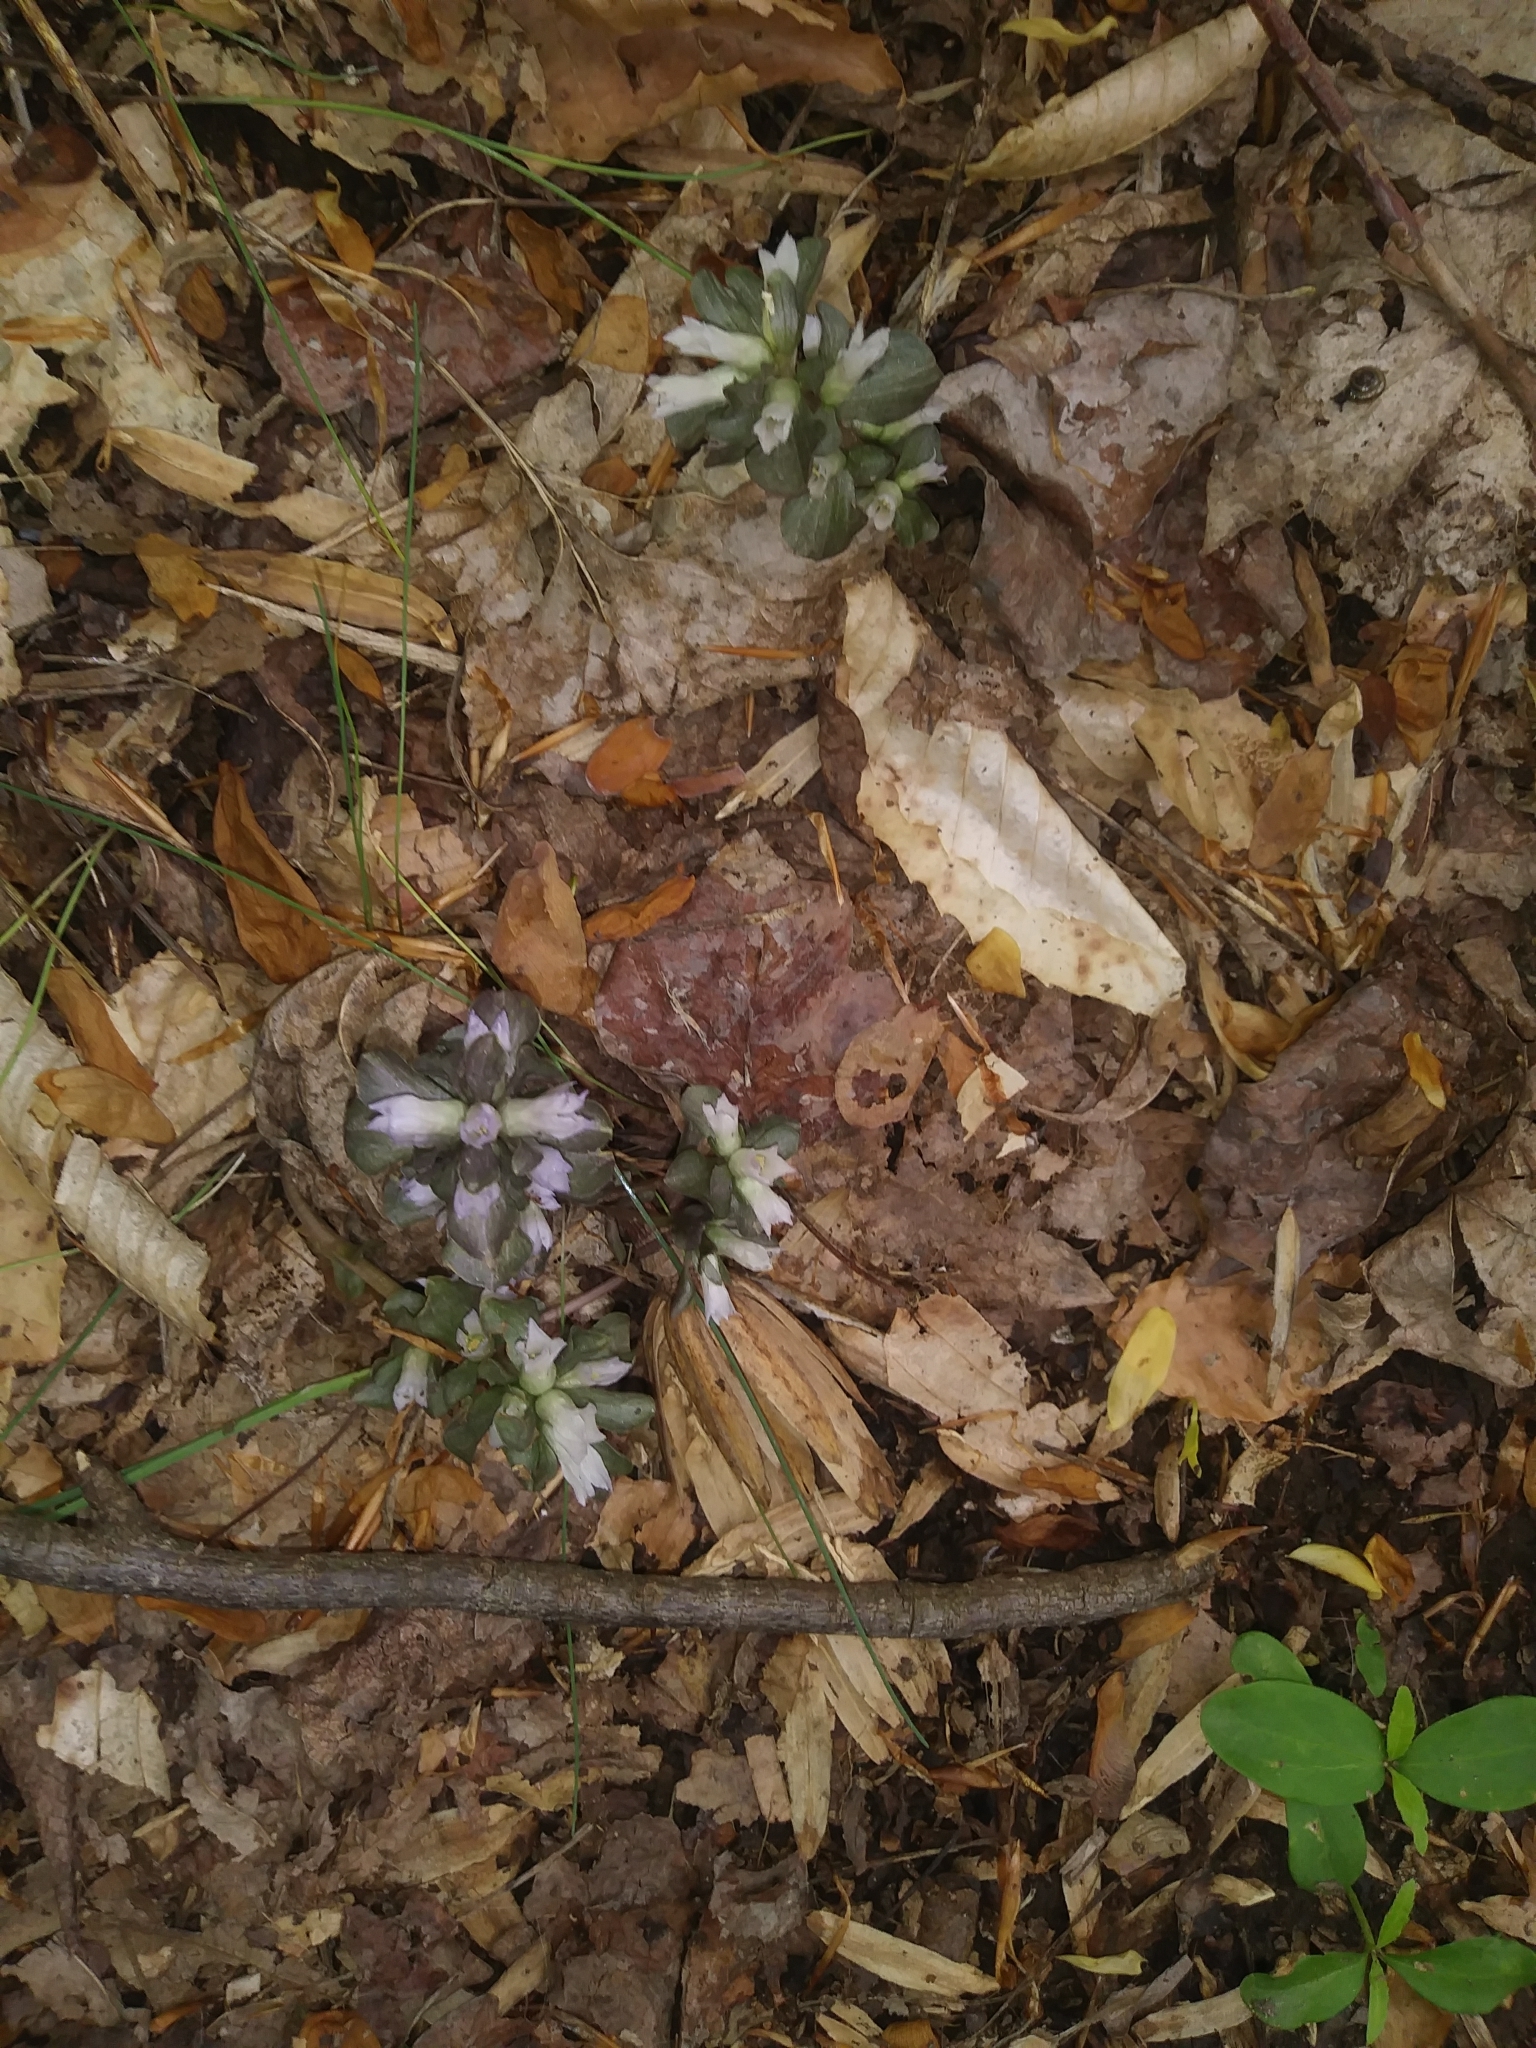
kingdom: Plantae
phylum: Tracheophyta
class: Magnoliopsida
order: Gentianales
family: Gentianaceae
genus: Obolaria
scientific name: Obolaria virginica
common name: Pennywort
